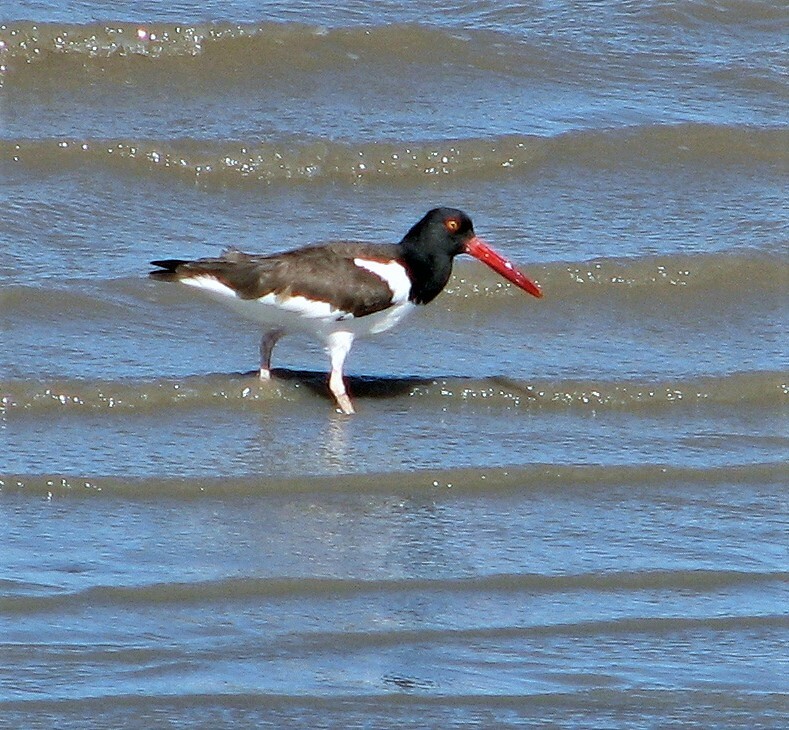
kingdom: Animalia
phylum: Chordata
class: Aves
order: Charadriiformes
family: Haematopodidae
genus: Haematopus
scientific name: Haematopus palliatus
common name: American oystercatcher
